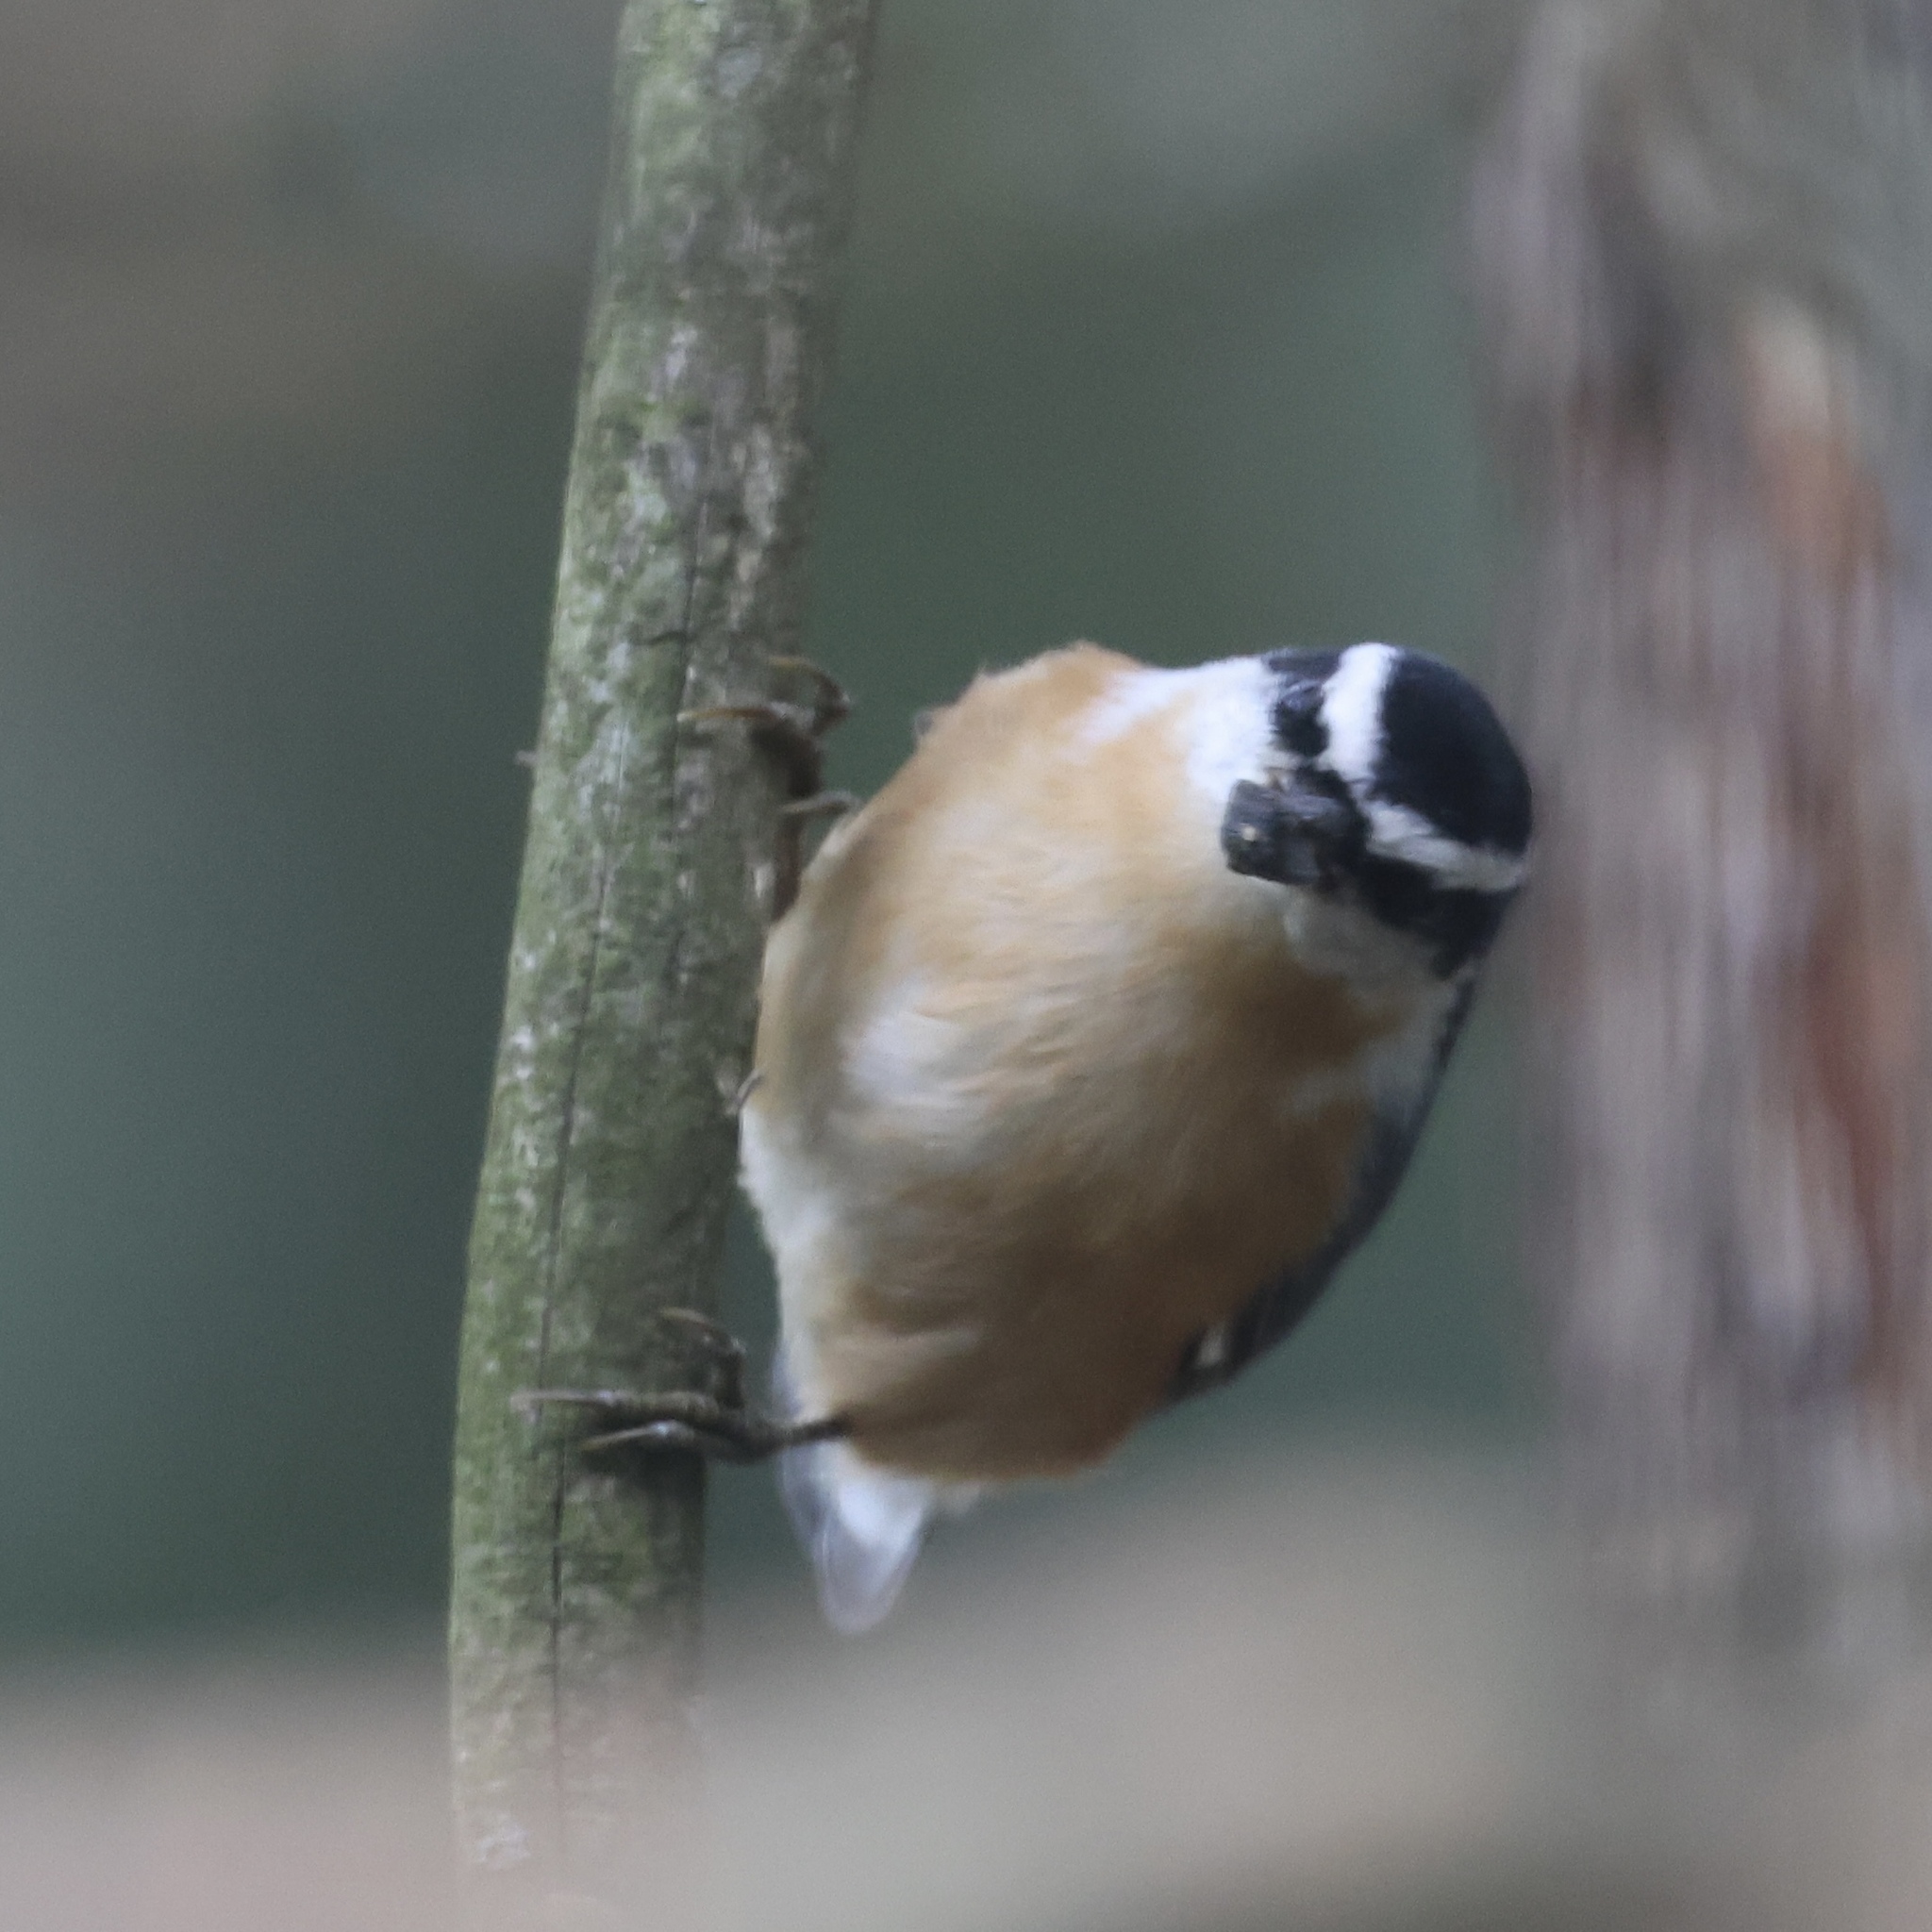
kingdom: Animalia
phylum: Chordata
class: Aves
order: Passeriformes
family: Sittidae
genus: Sitta
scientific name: Sitta canadensis
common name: Red-breasted nuthatch
